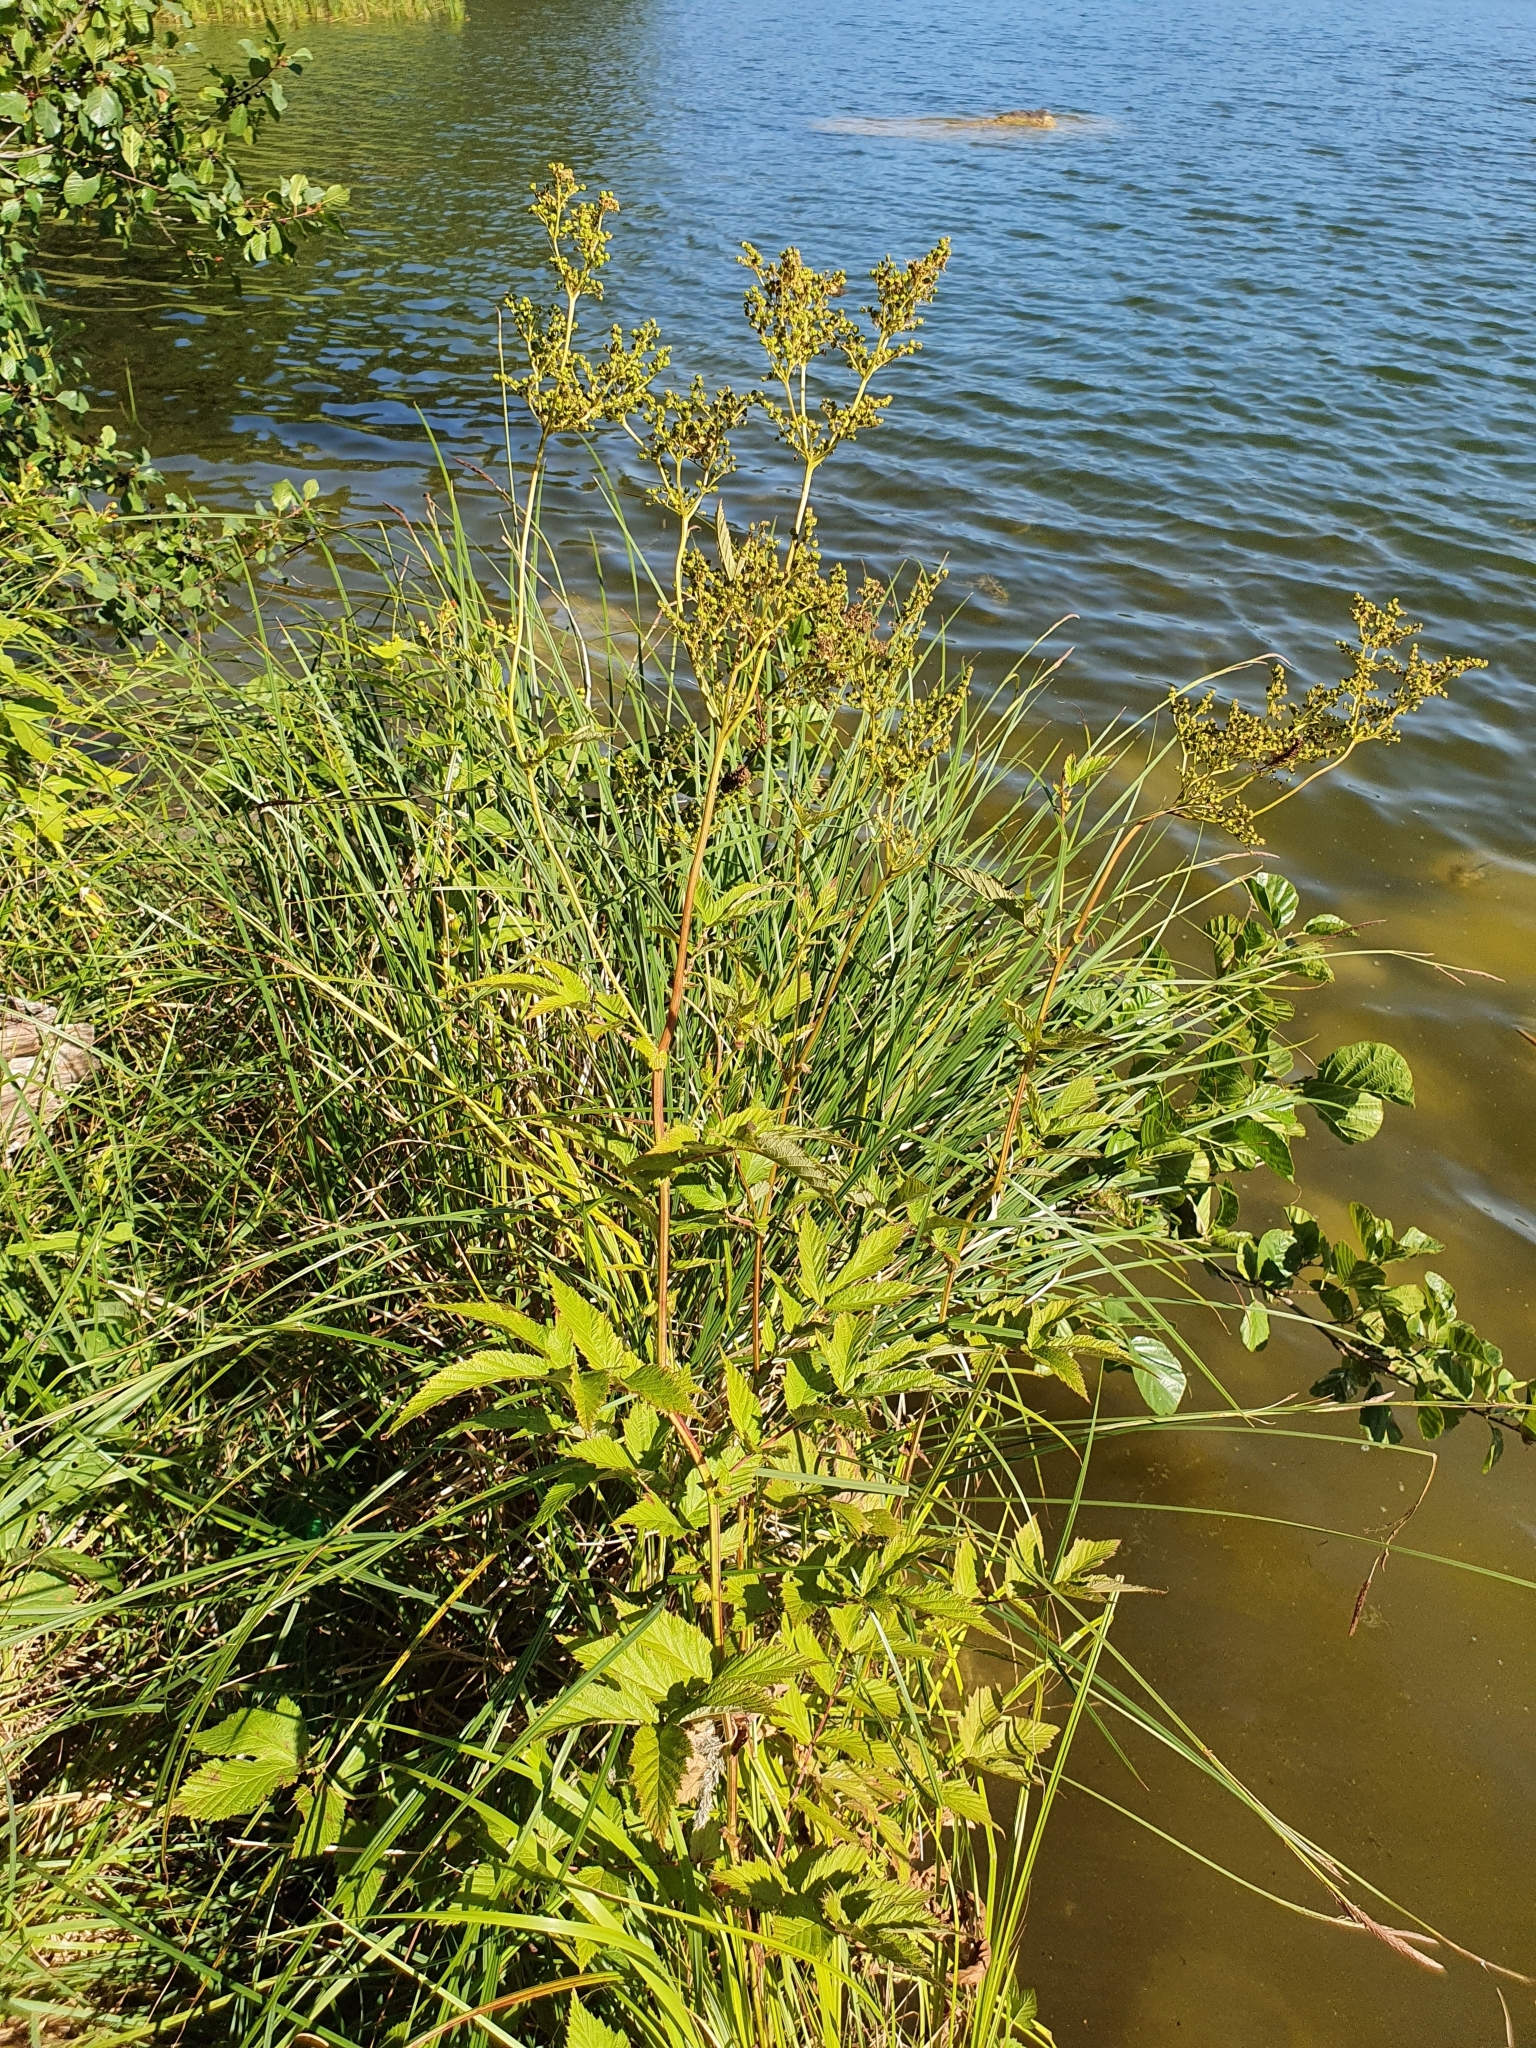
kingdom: Plantae
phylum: Tracheophyta
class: Magnoliopsida
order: Rosales
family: Rosaceae
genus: Filipendula
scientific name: Filipendula ulmaria
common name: Meadowsweet
